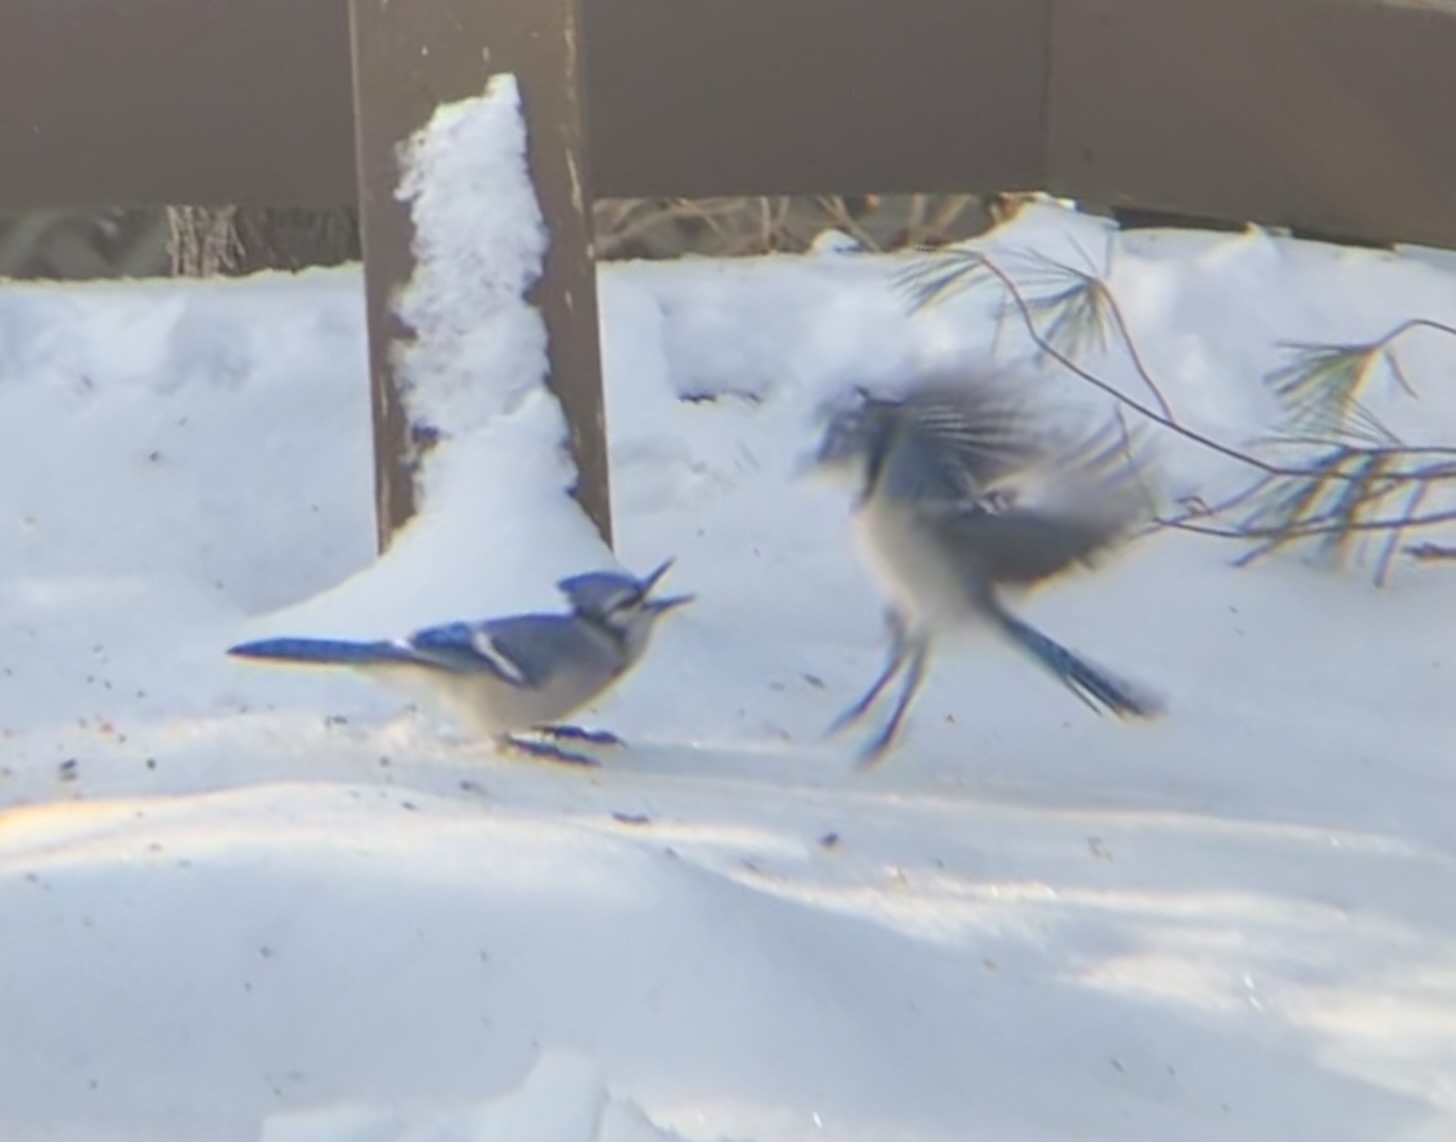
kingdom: Animalia
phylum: Chordata
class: Aves
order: Passeriformes
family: Corvidae
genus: Cyanocitta
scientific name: Cyanocitta cristata
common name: Blue jay
